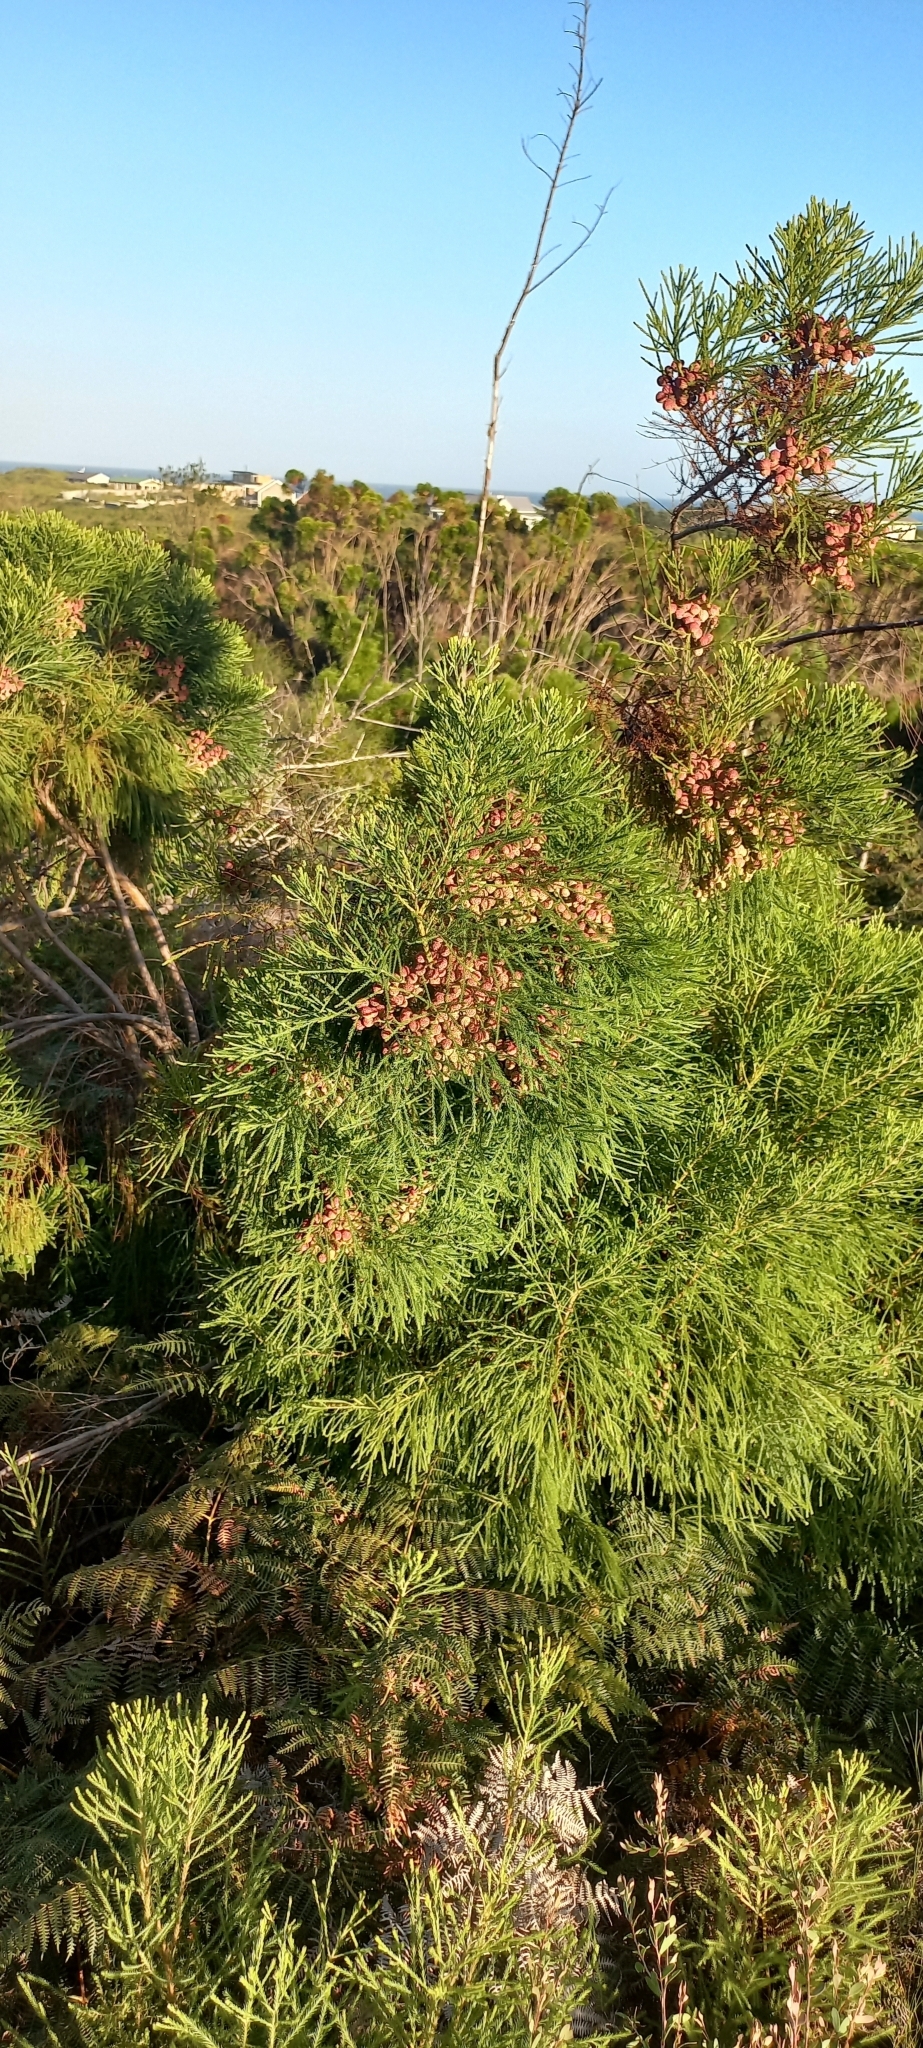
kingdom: Plantae
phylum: Tracheophyta
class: Magnoliopsida
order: Bruniales
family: Bruniaceae
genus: Berzelia
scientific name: Berzelia lanuginosa
